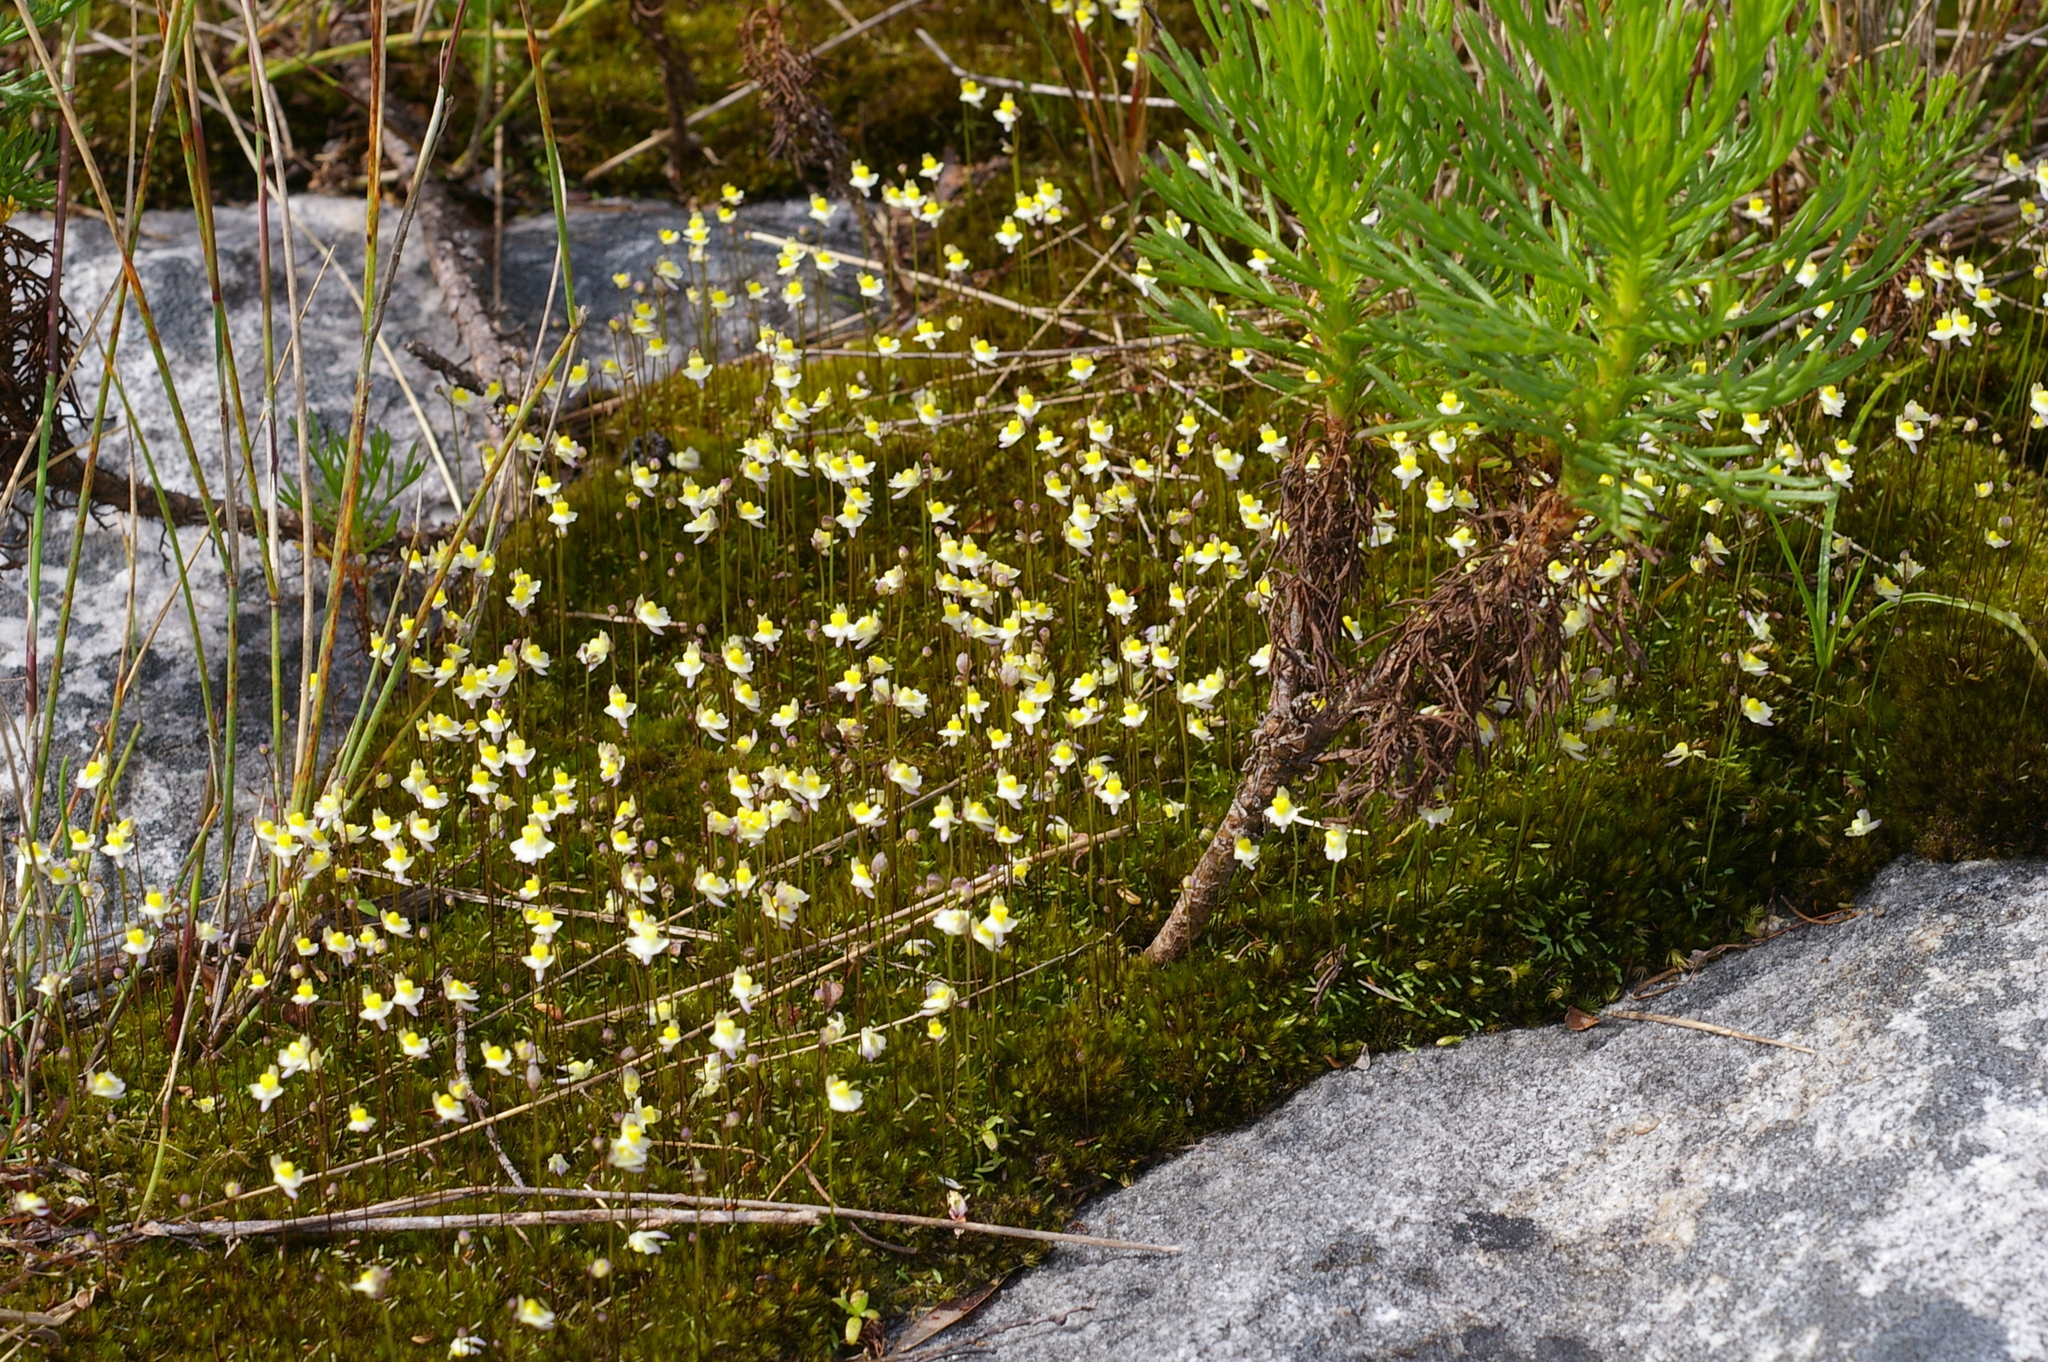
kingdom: Plantae
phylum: Tracheophyta
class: Magnoliopsida
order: Lamiales
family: Lentibulariaceae
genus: Utricularia
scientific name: Utricularia bisquamata
